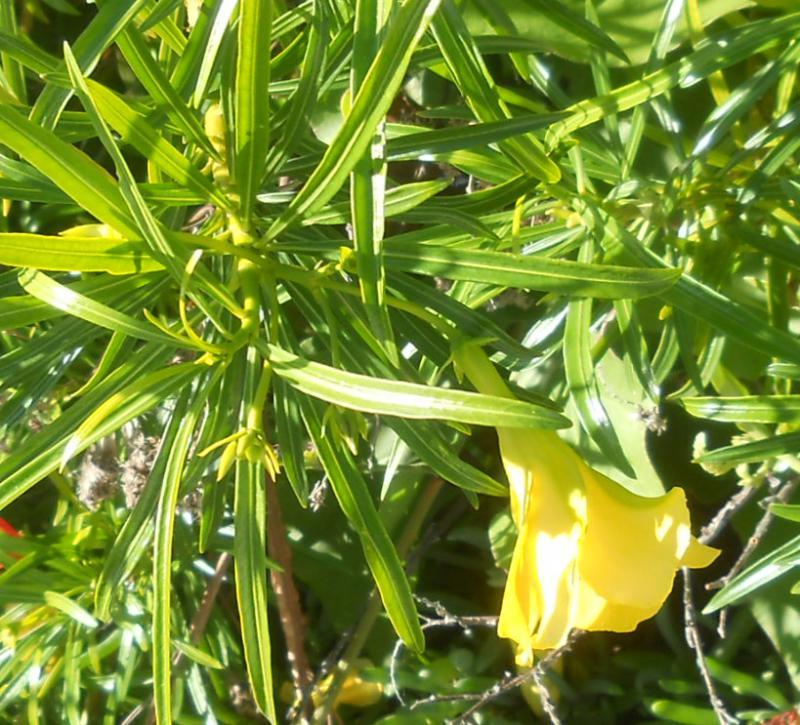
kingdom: Plantae
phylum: Tracheophyta
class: Magnoliopsida
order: Gentianales
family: Apocynaceae
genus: Cascabela
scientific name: Cascabela thevetia
